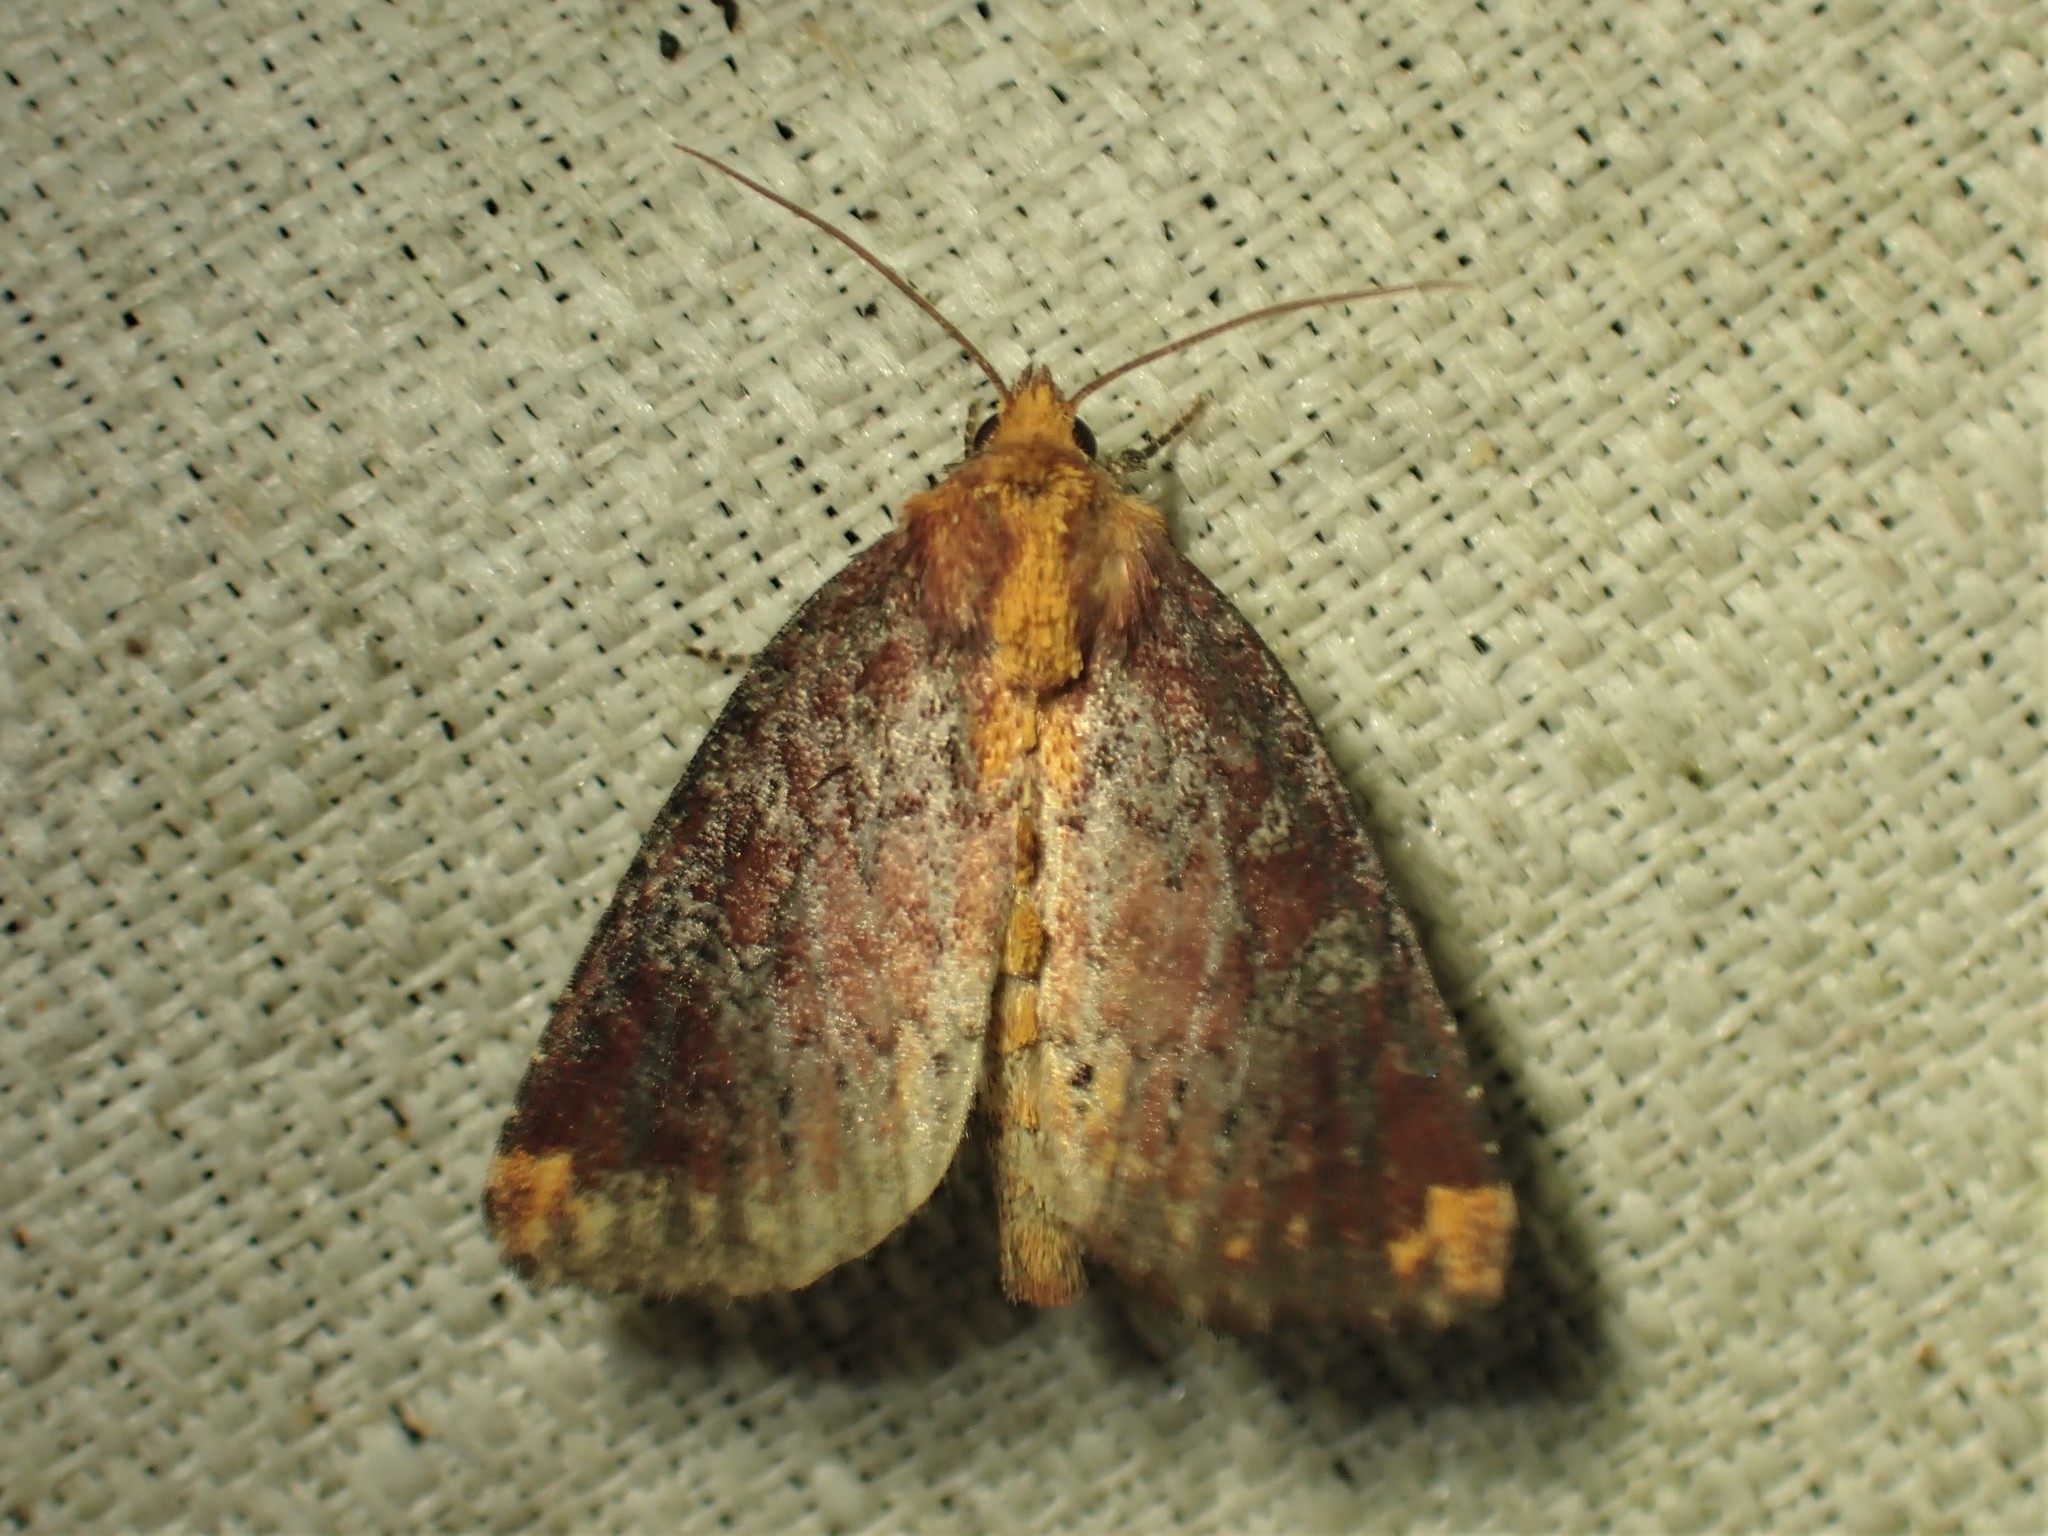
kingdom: Animalia
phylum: Arthropoda
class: Insecta
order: Lepidoptera
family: Noctuidae
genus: Achatodes
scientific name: Achatodes zeae
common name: Elder shoot borer
